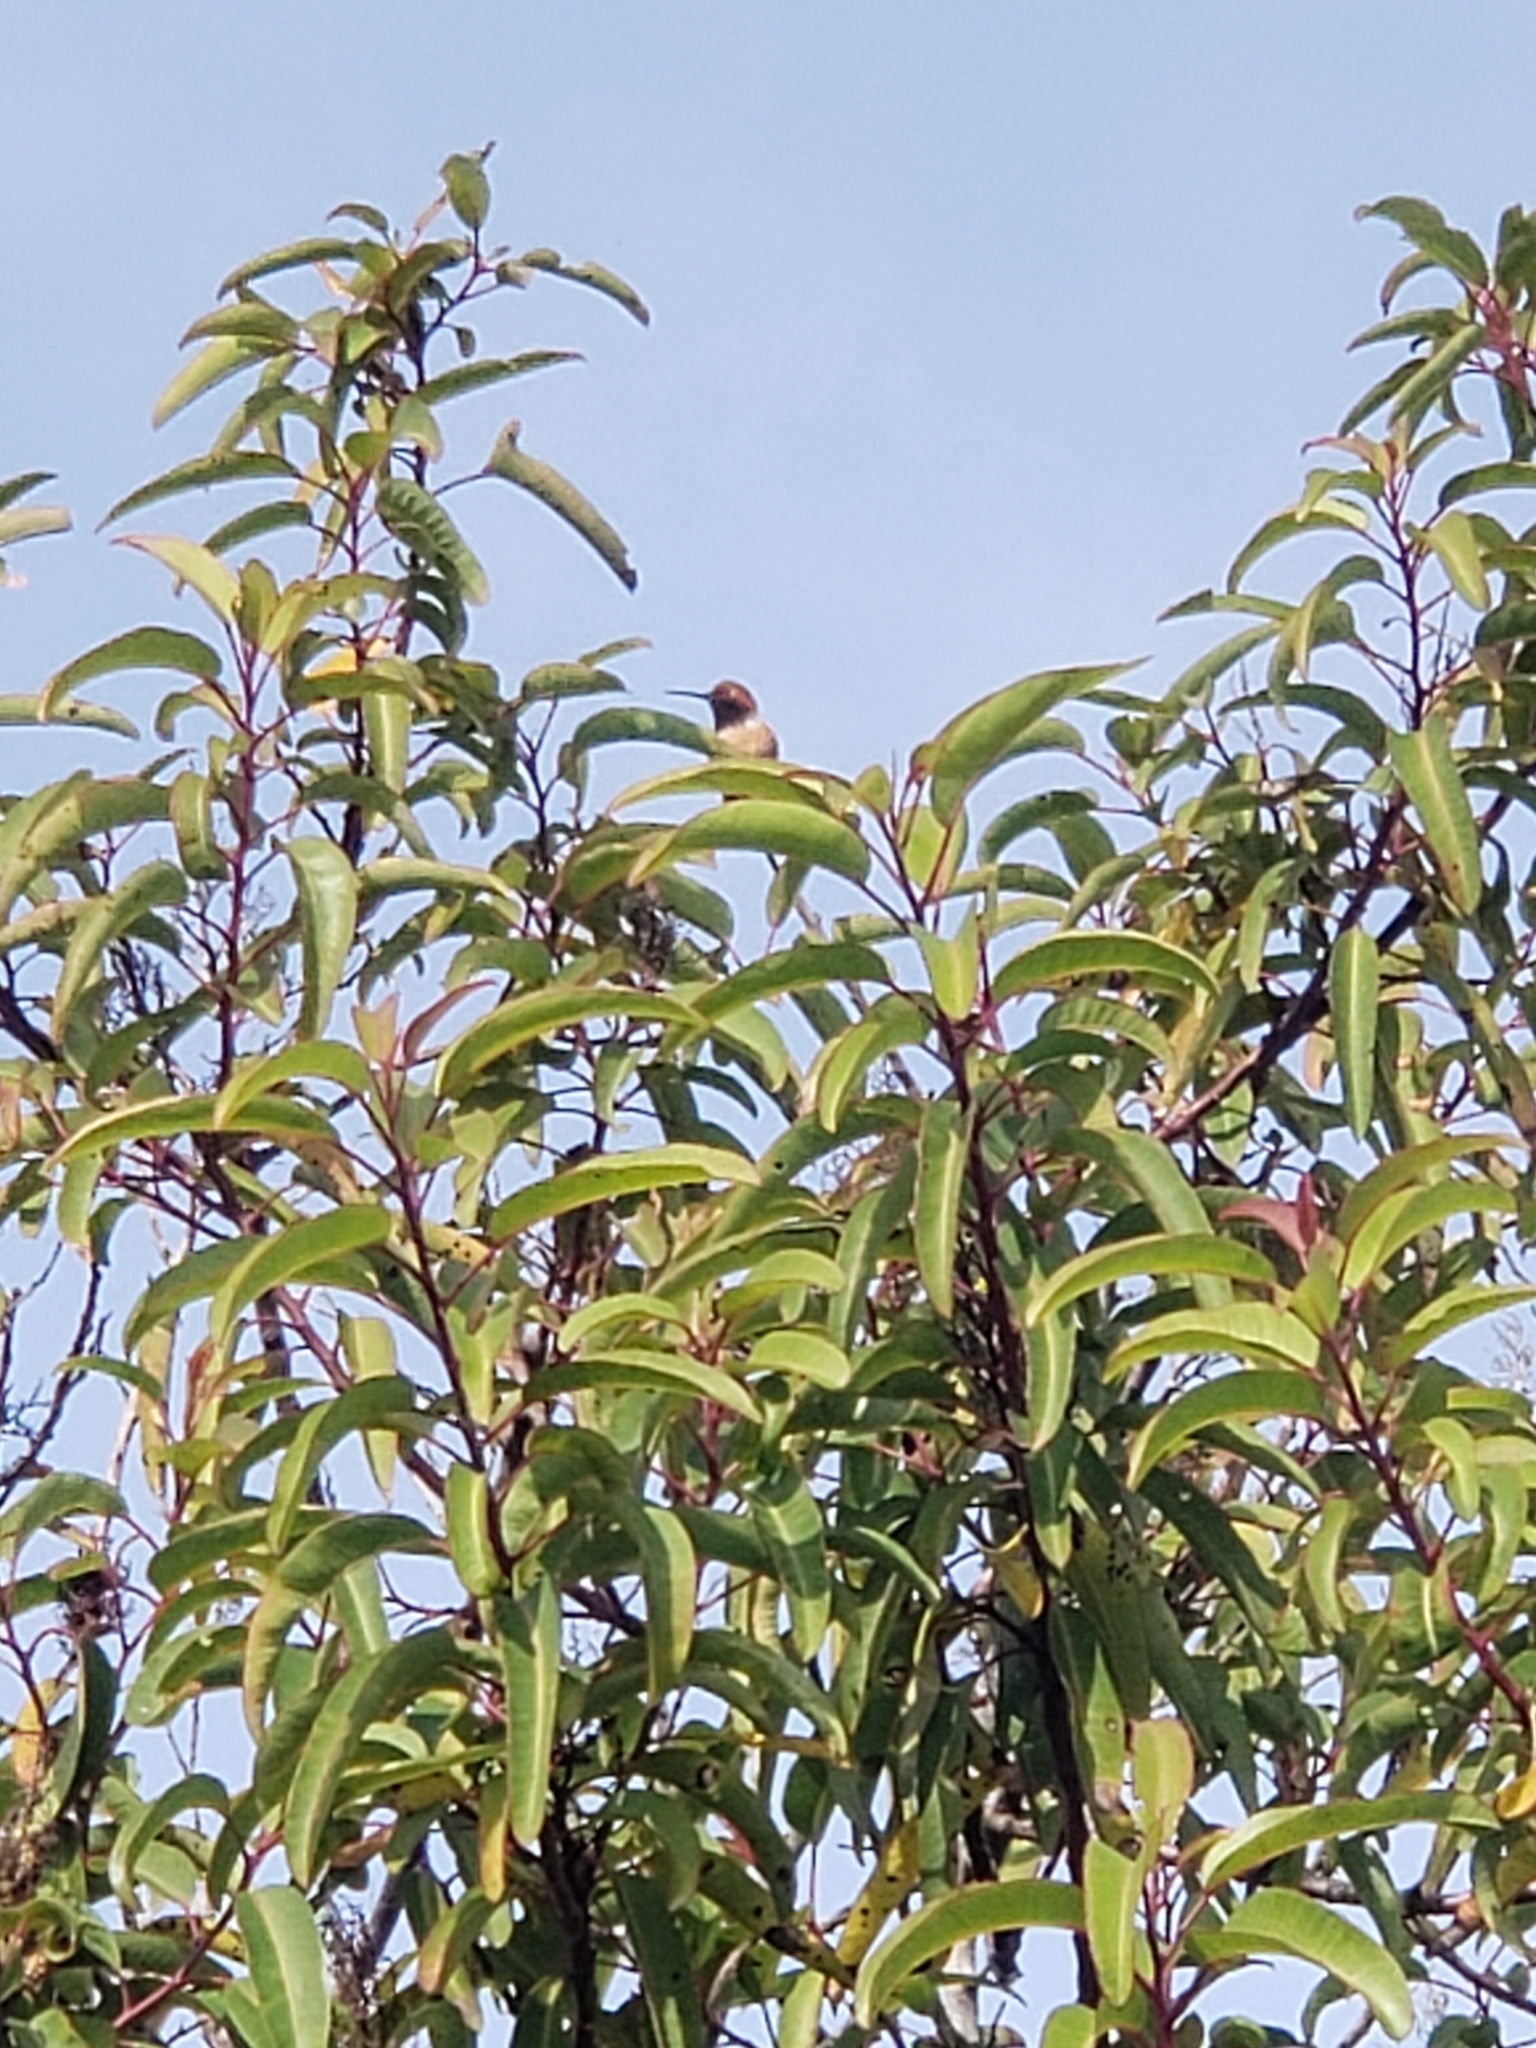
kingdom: Animalia
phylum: Chordata
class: Aves
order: Apodiformes
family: Trochilidae
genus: Selasphorus
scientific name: Selasphorus sasin
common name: Allen's hummingbird
